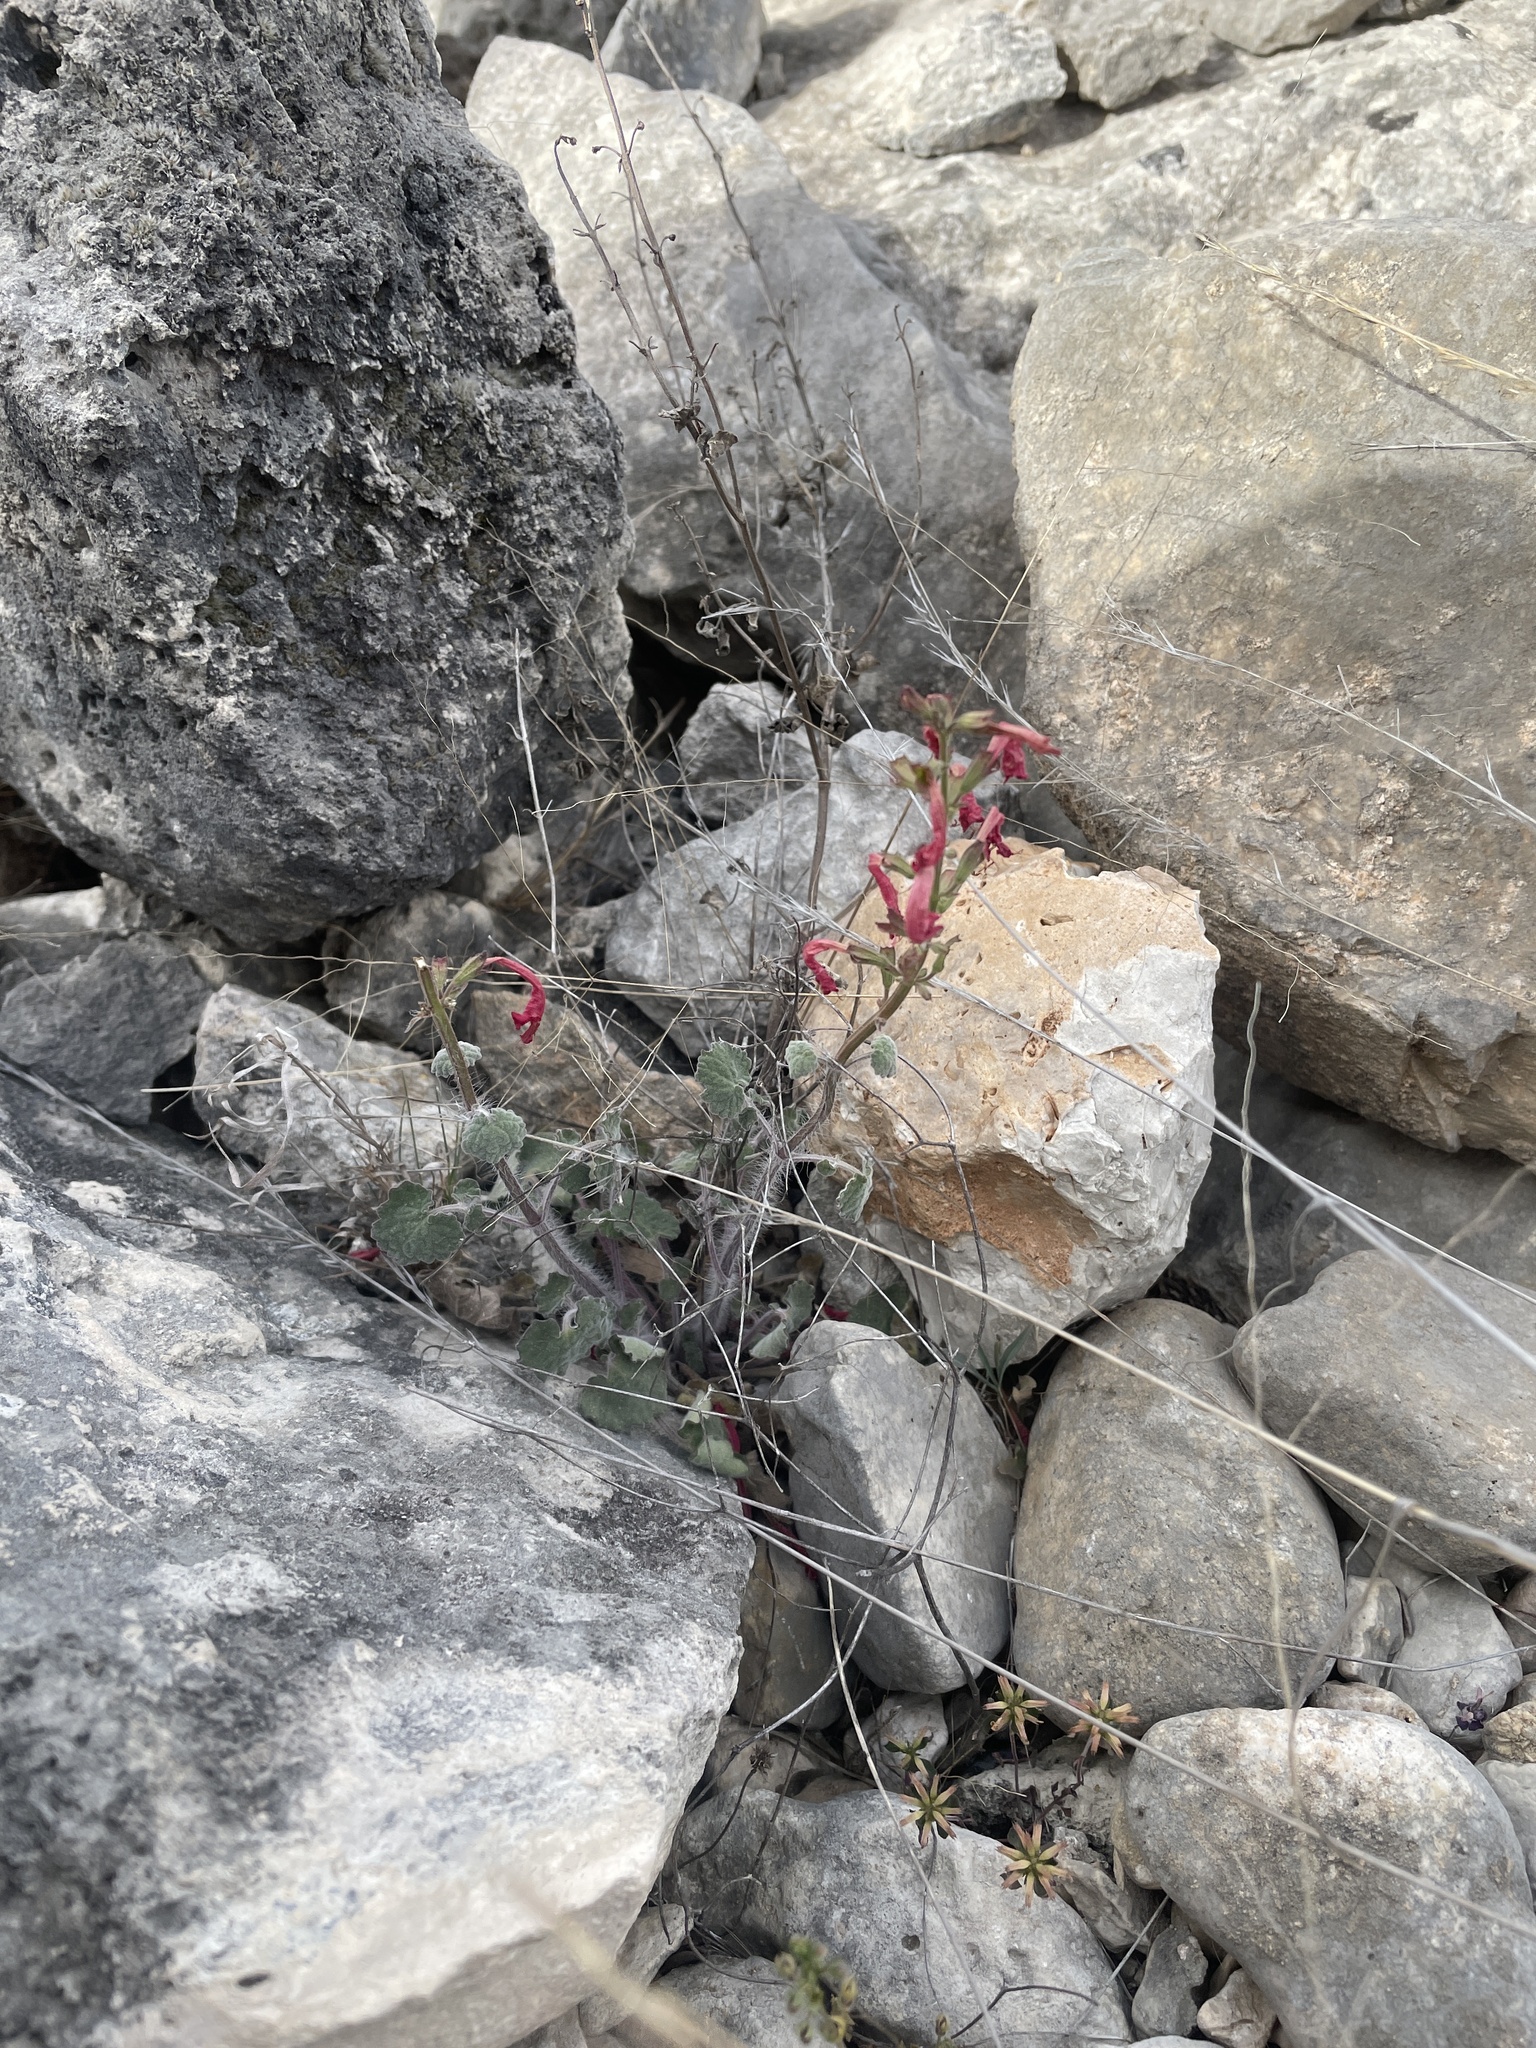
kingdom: Plantae
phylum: Tracheophyta
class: Magnoliopsida
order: Lamiales
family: Lamiaceae
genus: Salvia
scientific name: Salvia roemeriana
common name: Cedar sage
